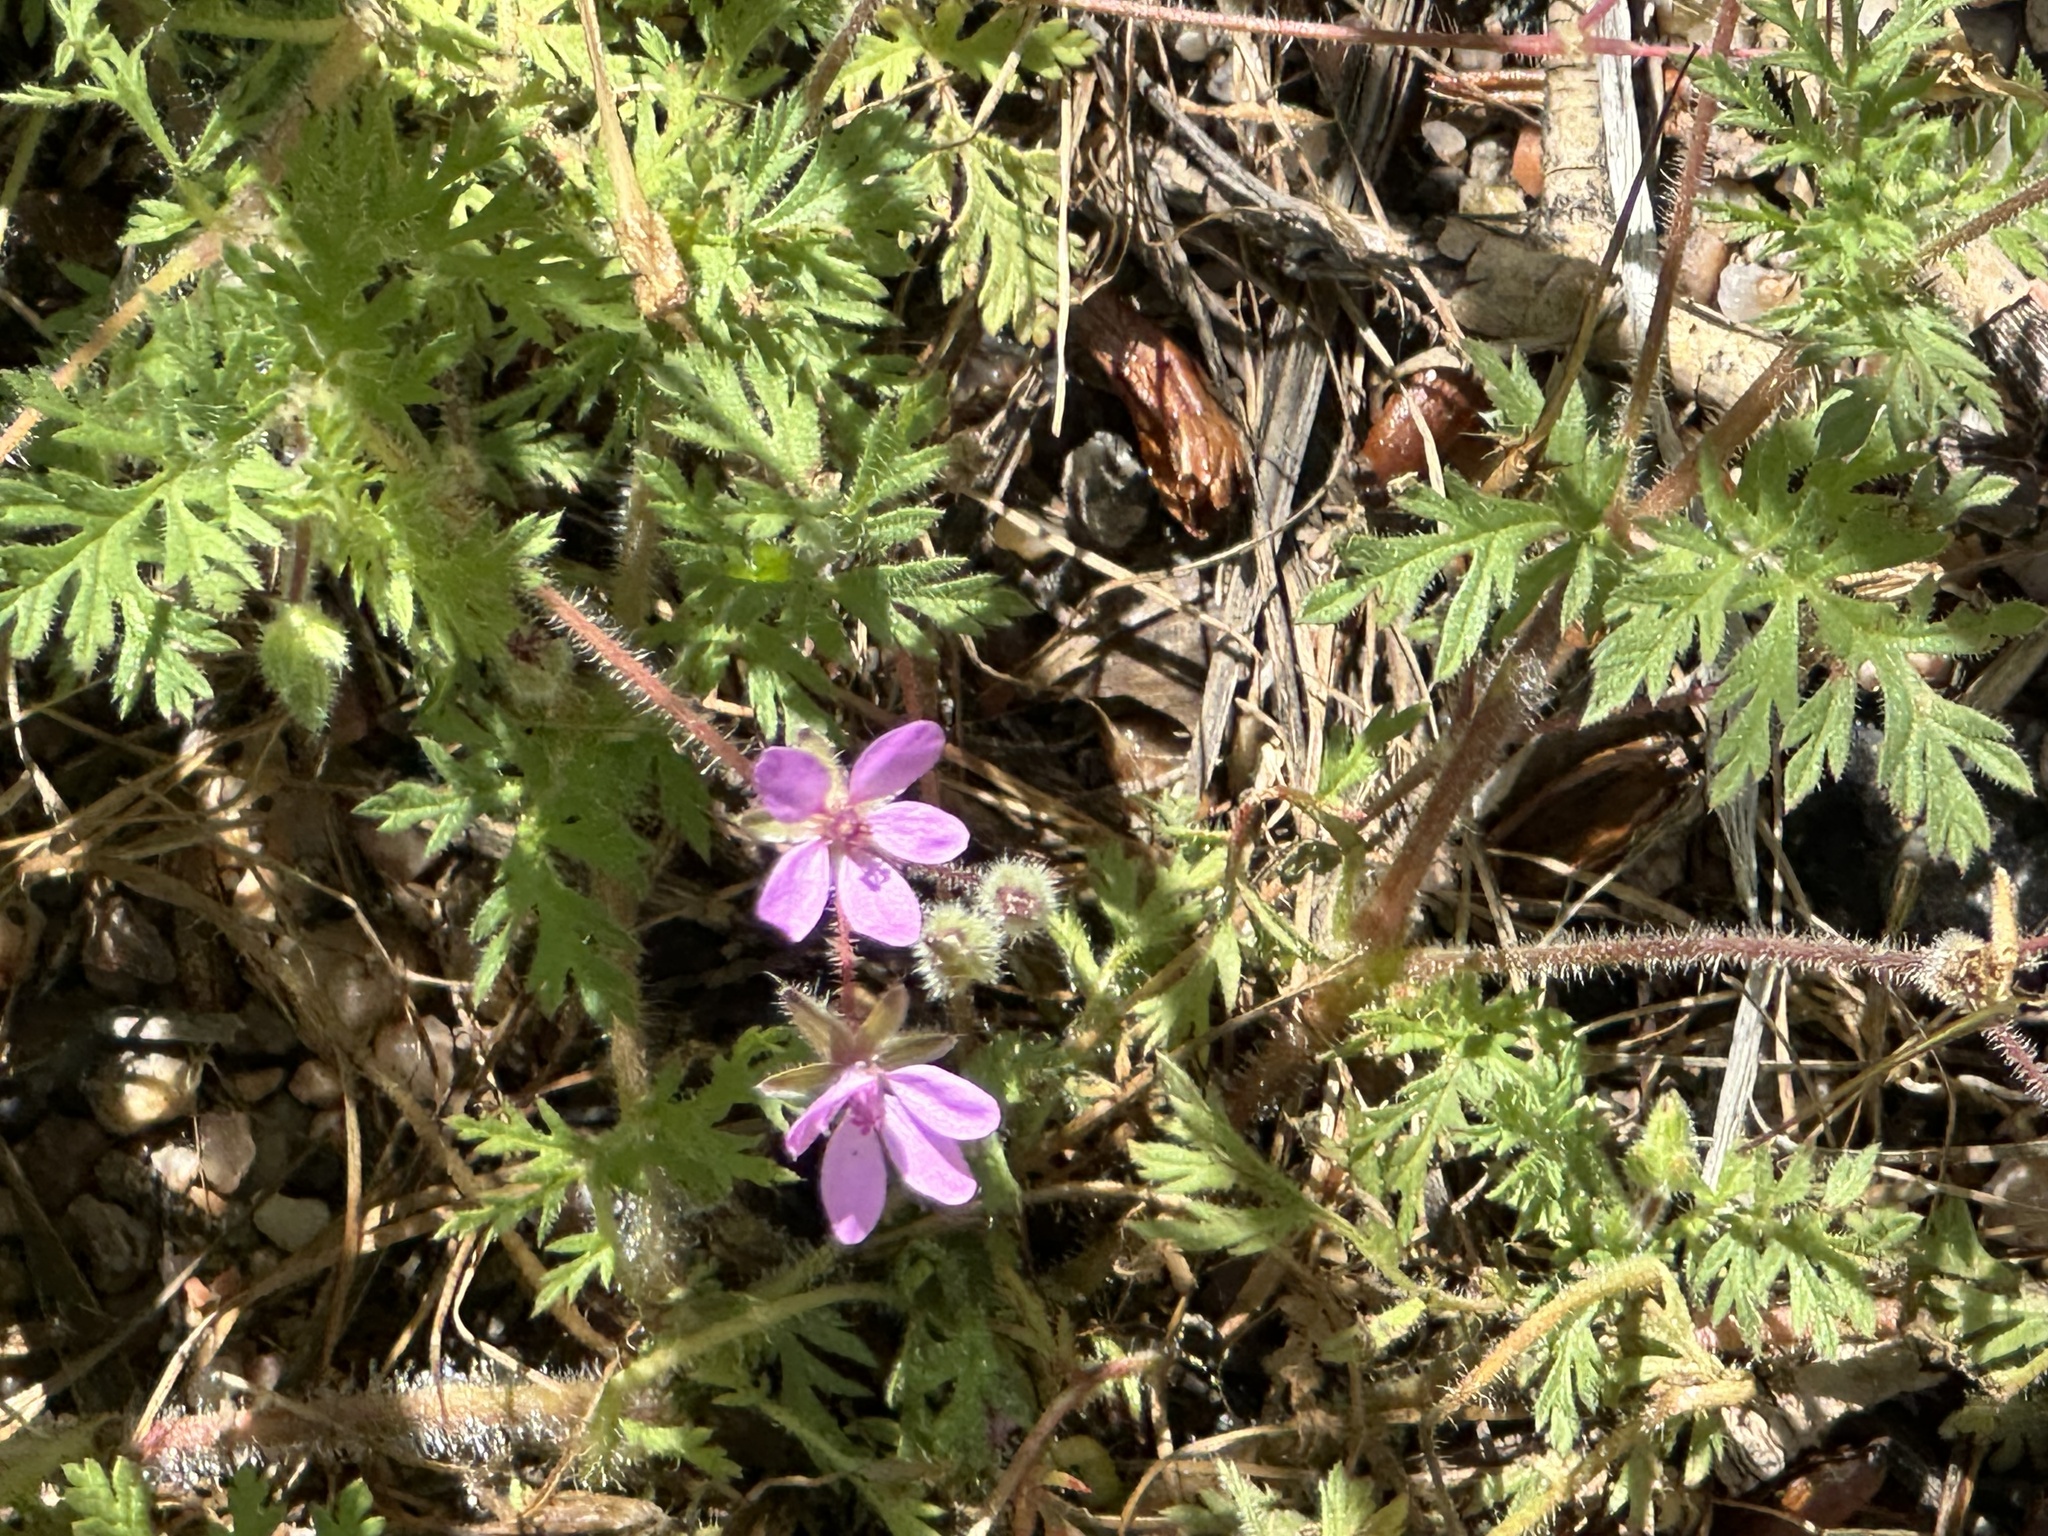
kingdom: Plantae
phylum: Tracheophyta
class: Magnoliopsida
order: Geraniales
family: Geraniaceae
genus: Erodium
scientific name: Erodium cicutarium
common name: Common stork's-bill
